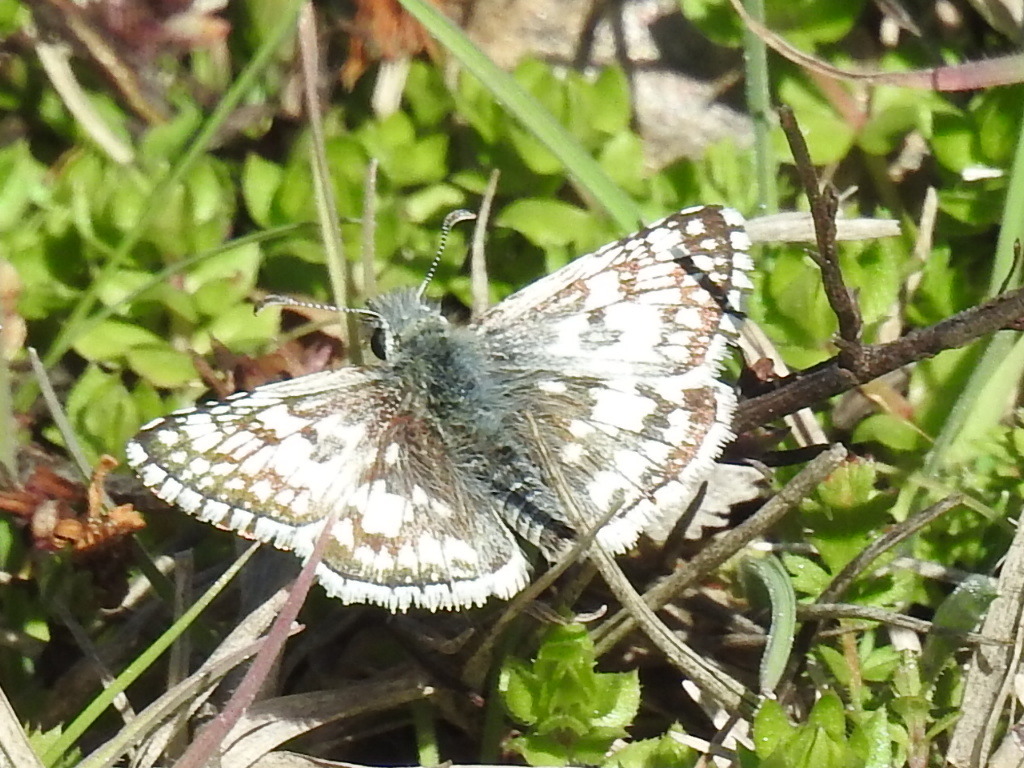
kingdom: Animalia
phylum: Arthropoda
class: Insecta
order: Lepidoptera
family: Hesperiidae
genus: Burnsius
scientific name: Burnsius
